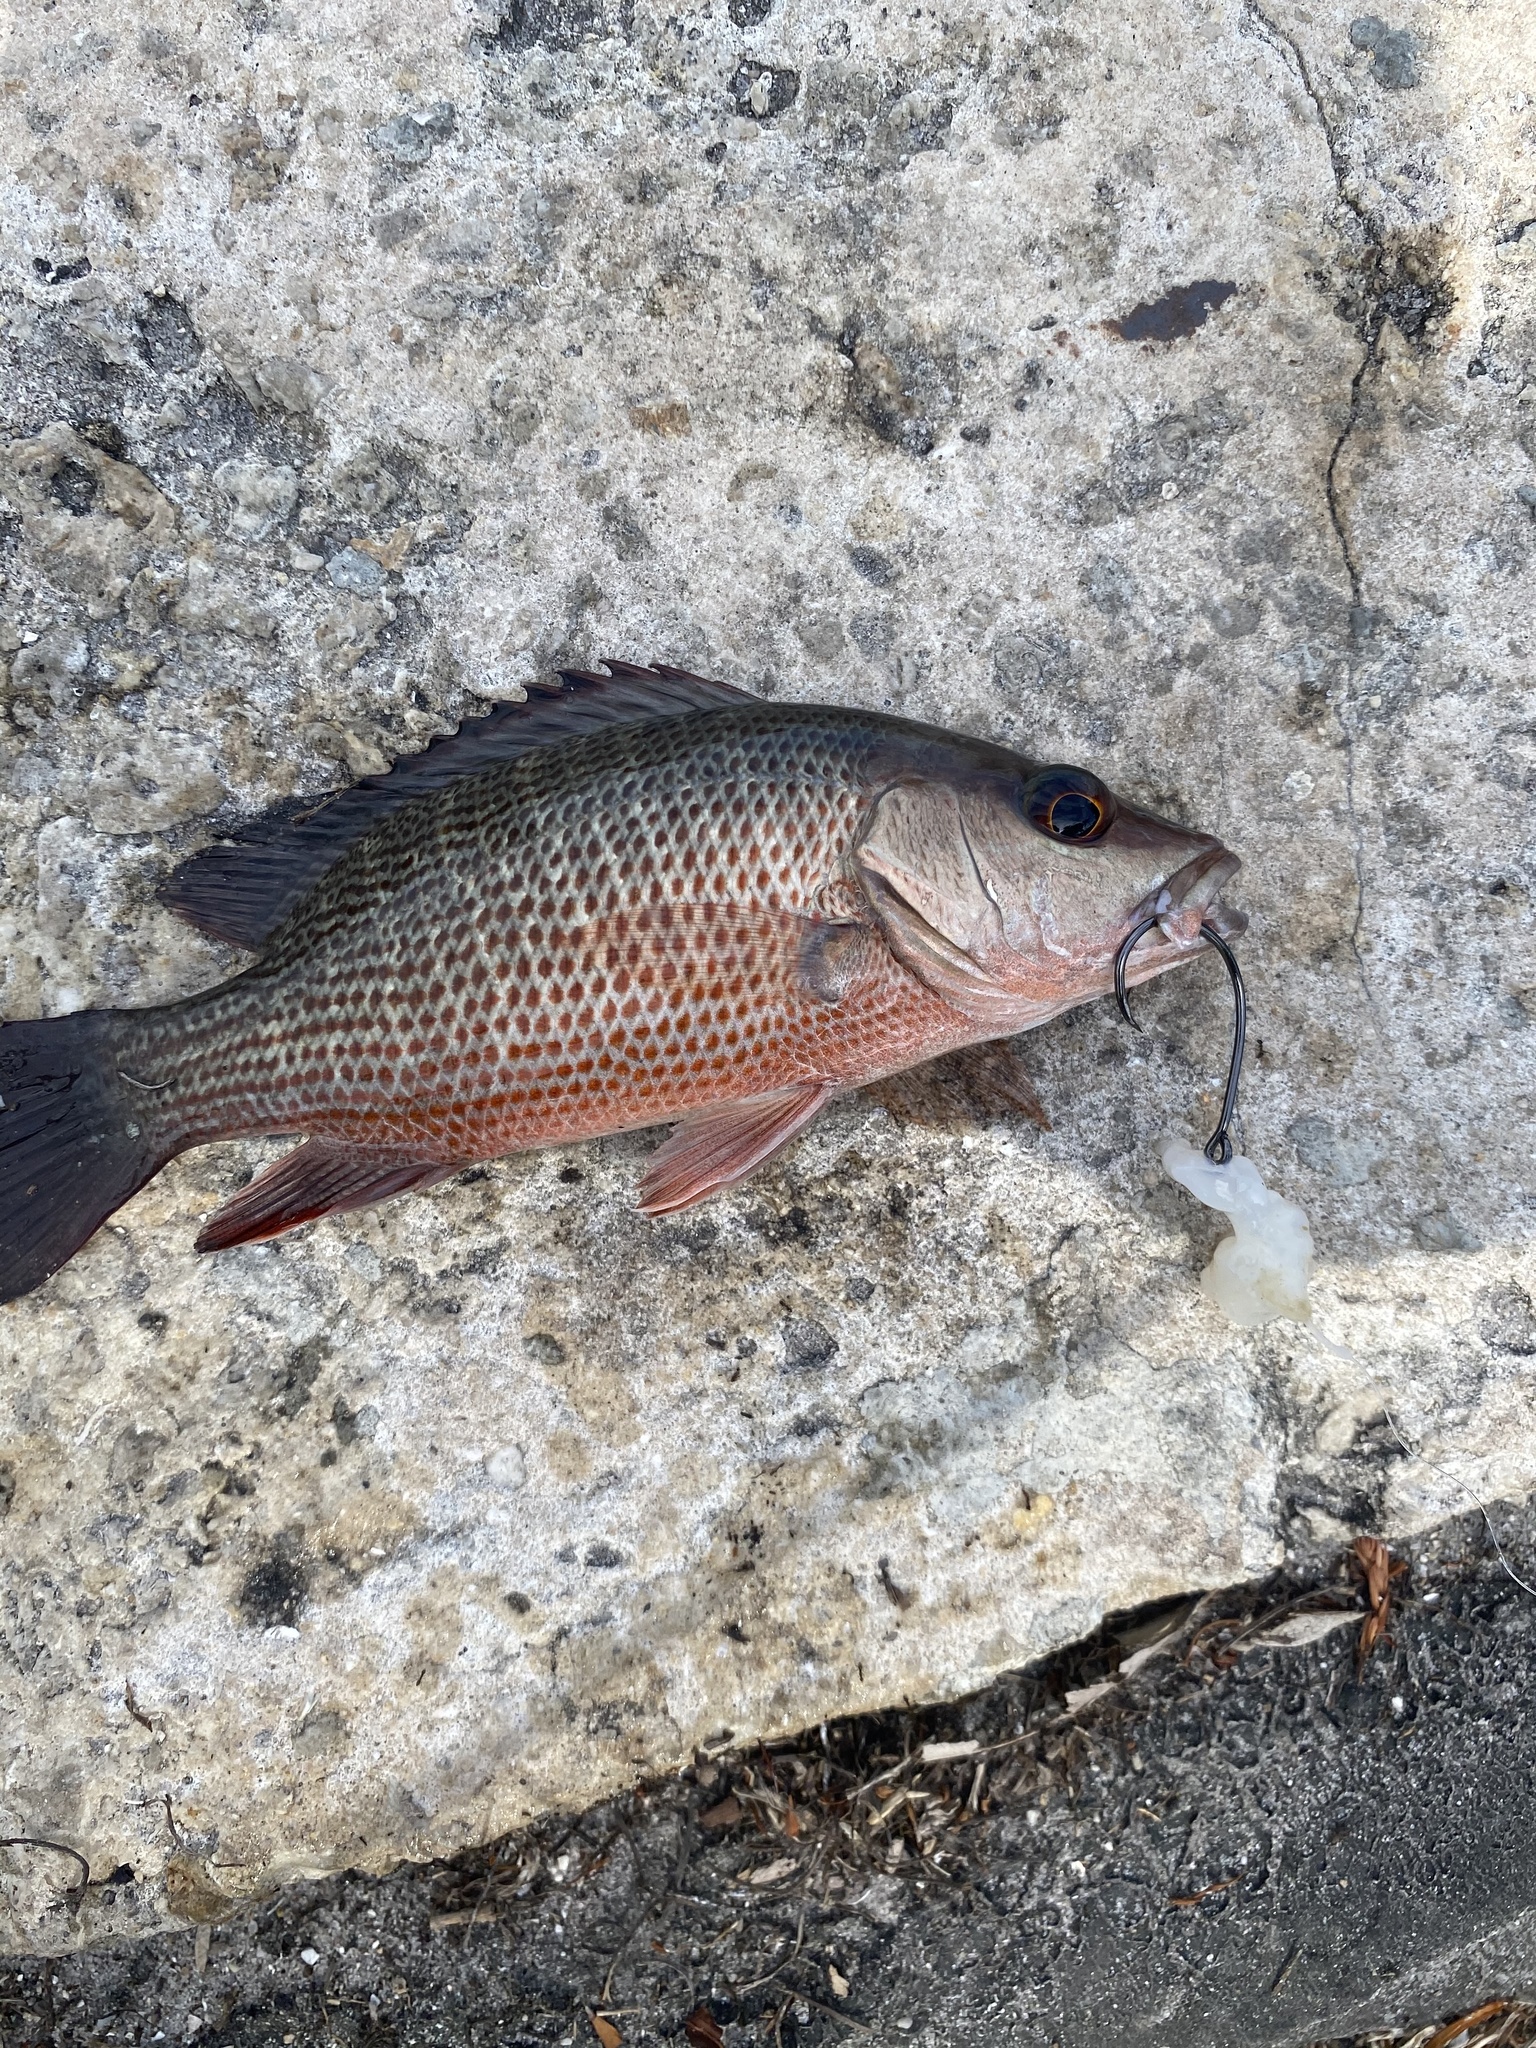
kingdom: Animalia
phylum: Chordata
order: Perciformes
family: Lutjanidae
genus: Lutjanus
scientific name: Lutjanus griseus
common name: Gray snapper
